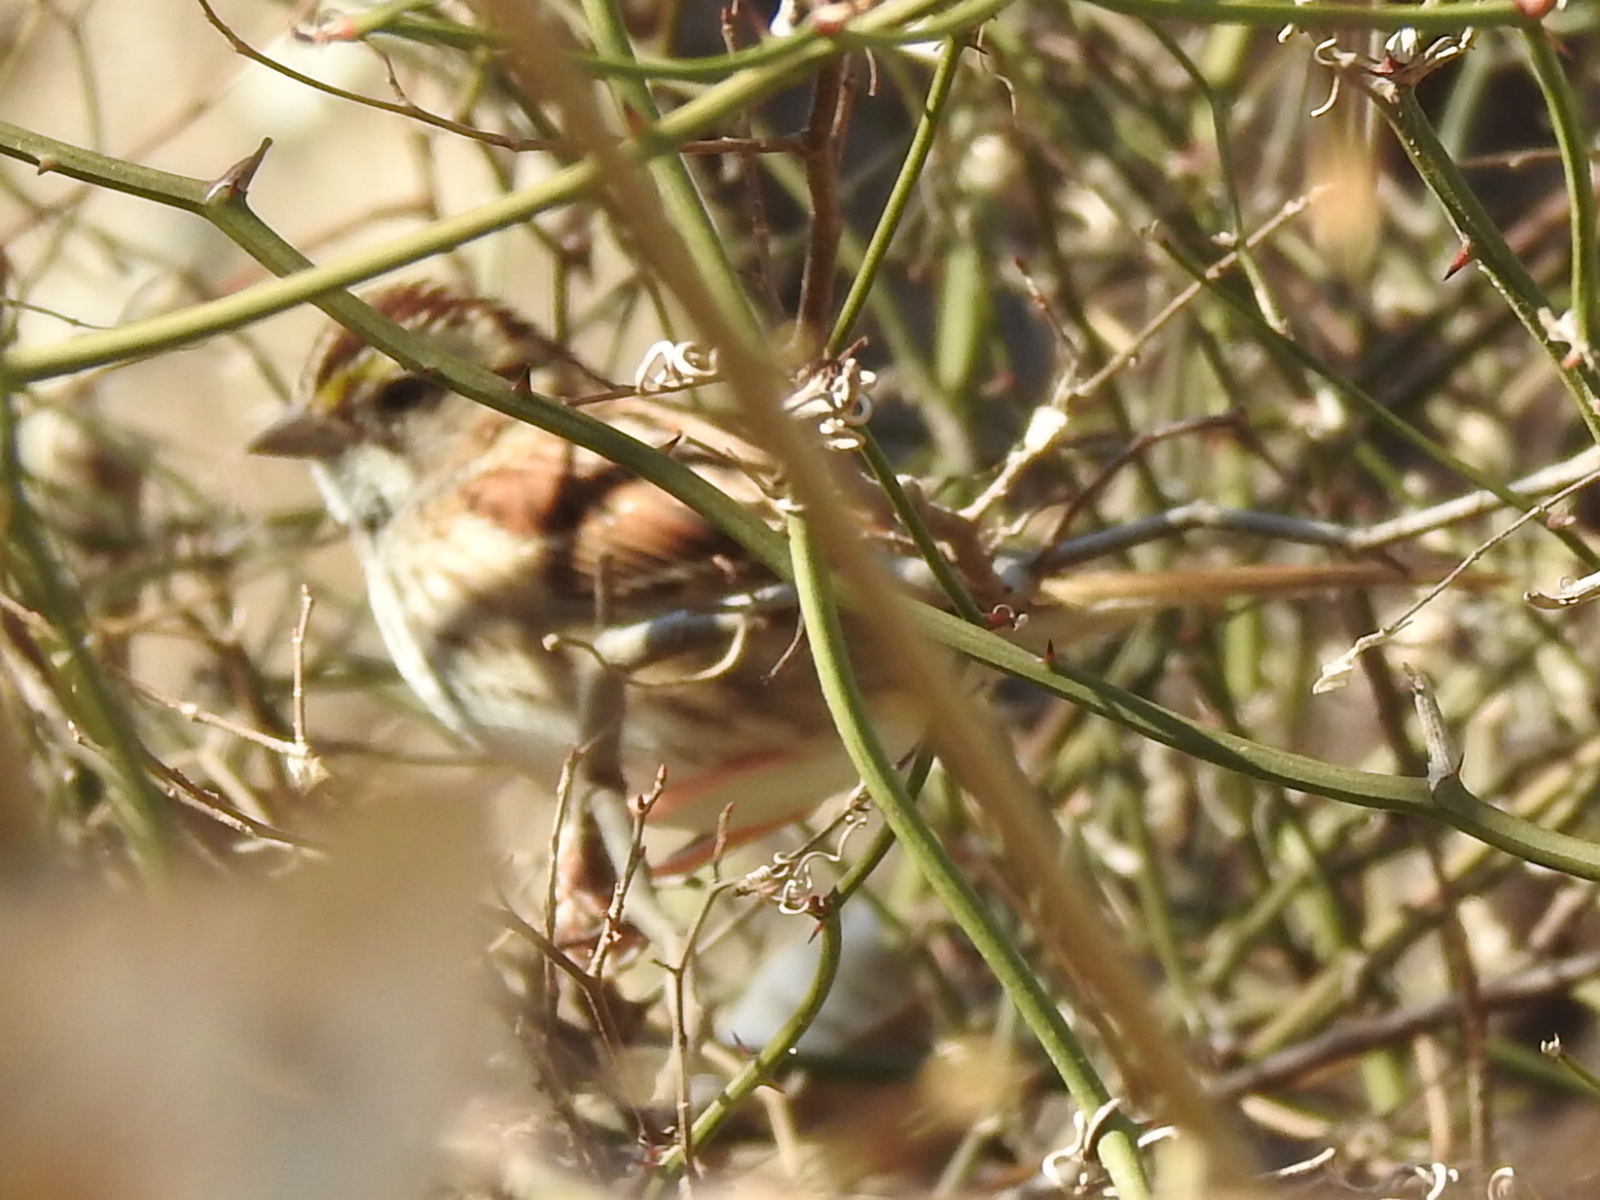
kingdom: Animalia
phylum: Chordata
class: Aves
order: Passeriformes
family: Passerellidae
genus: Zonotrichia
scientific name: Zonotrichia albicollis
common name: White-throated sparrow
